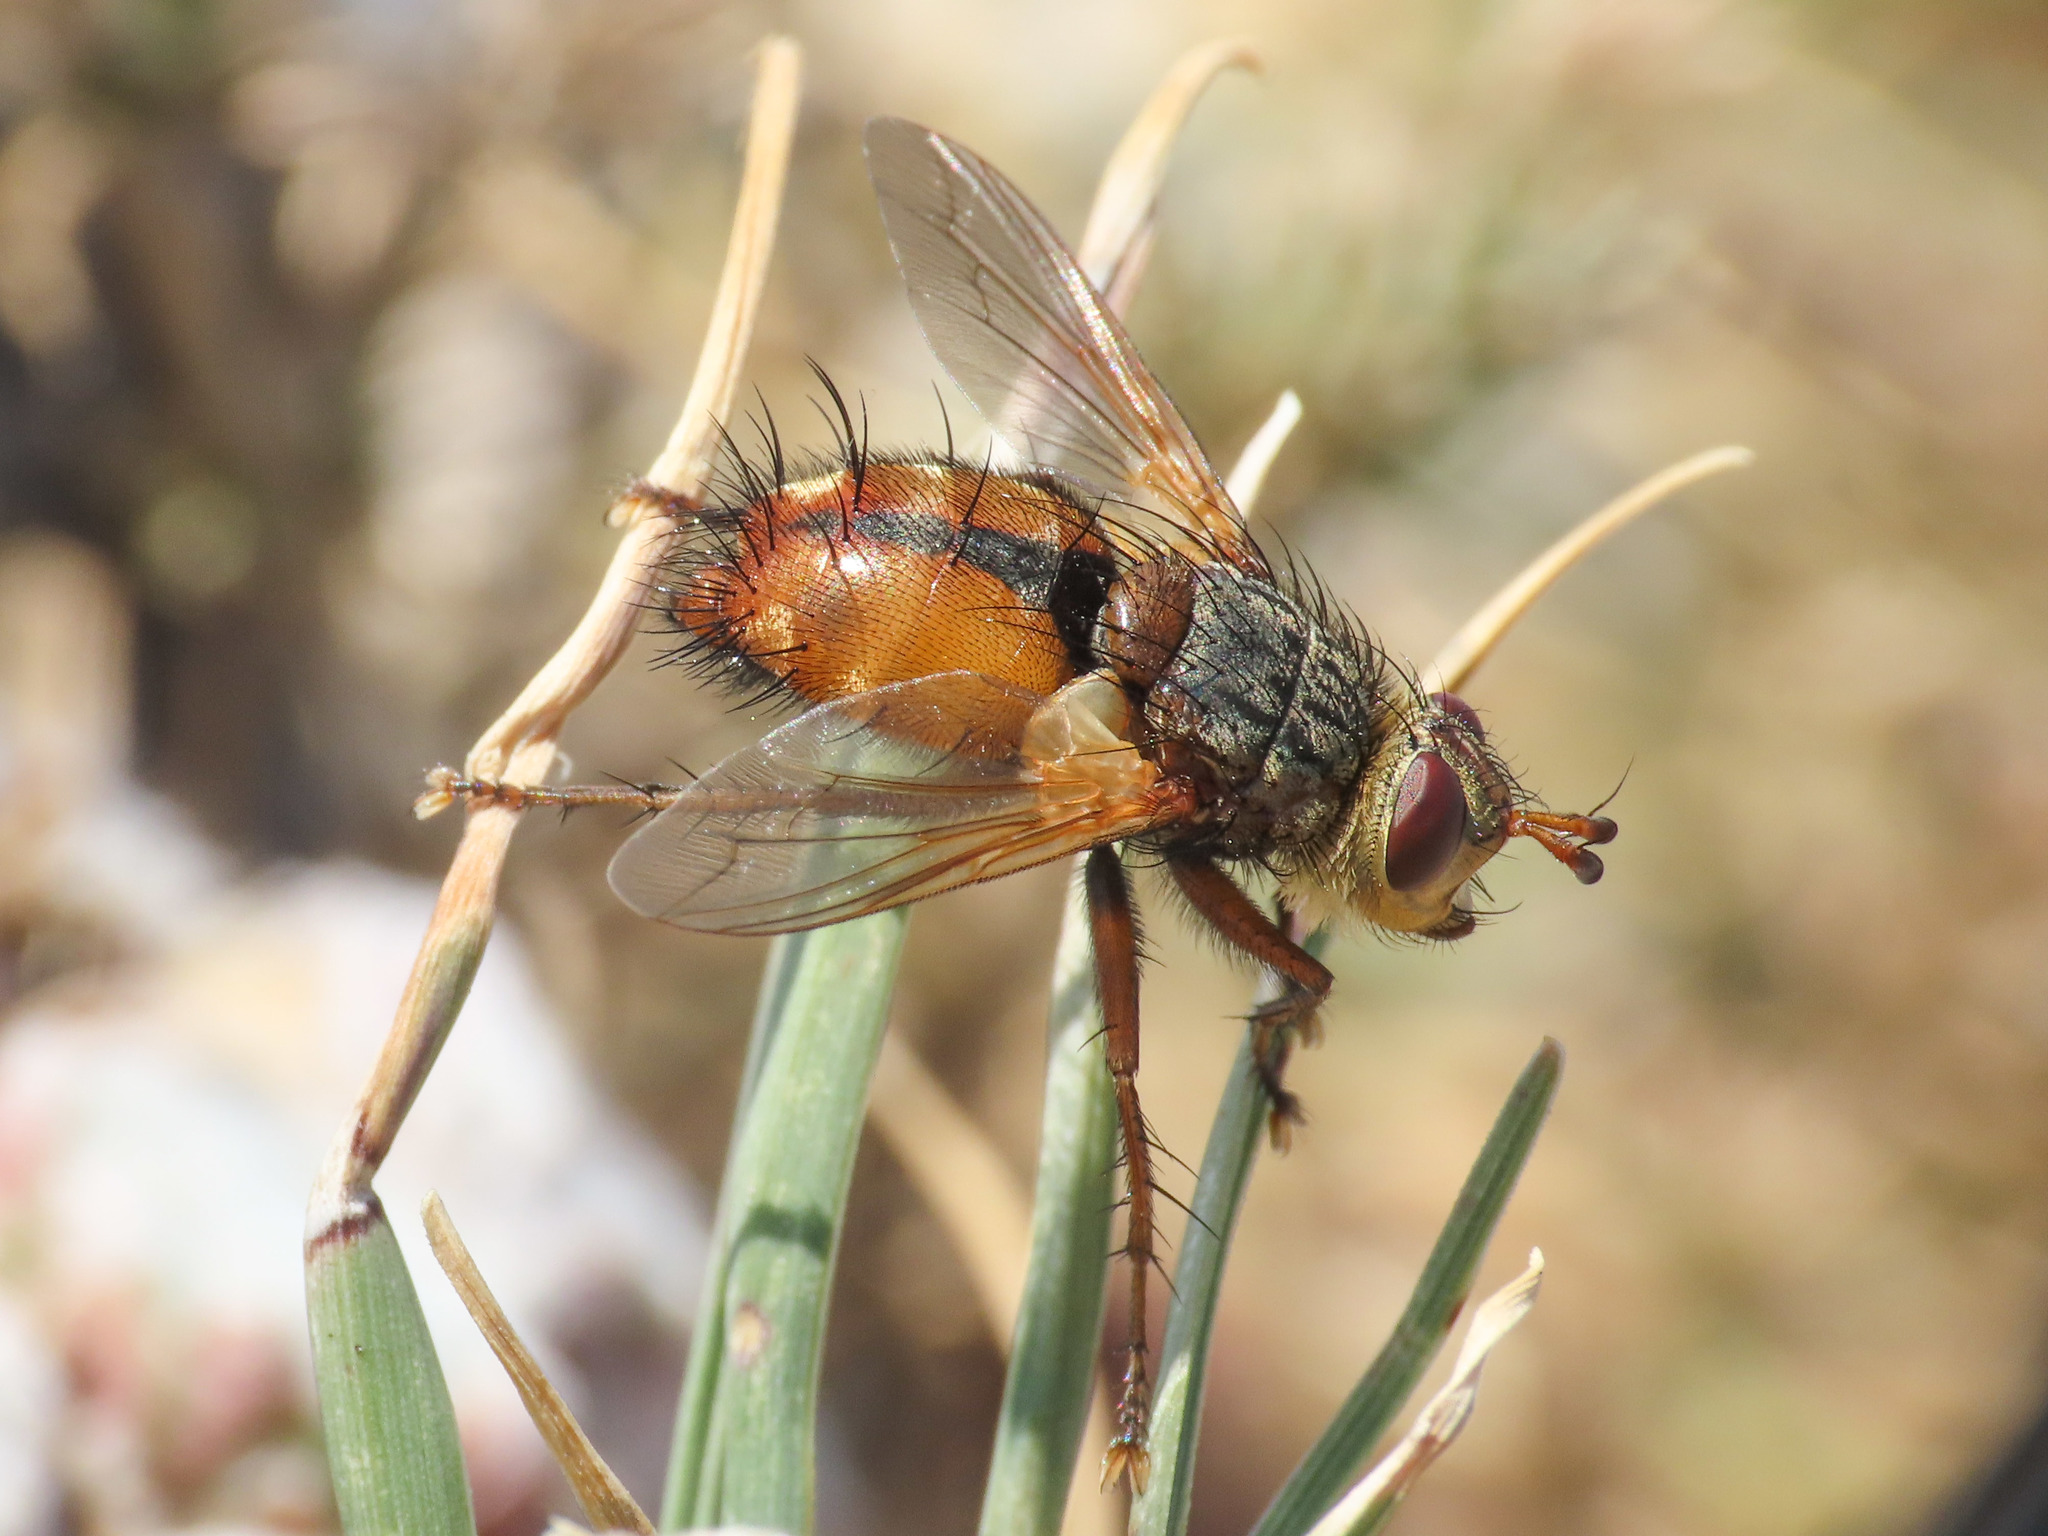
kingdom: Animalia
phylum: Arthropoda
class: Insecta
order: Diptera
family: Tachinidae
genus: Tachina
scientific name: Tachina fera
